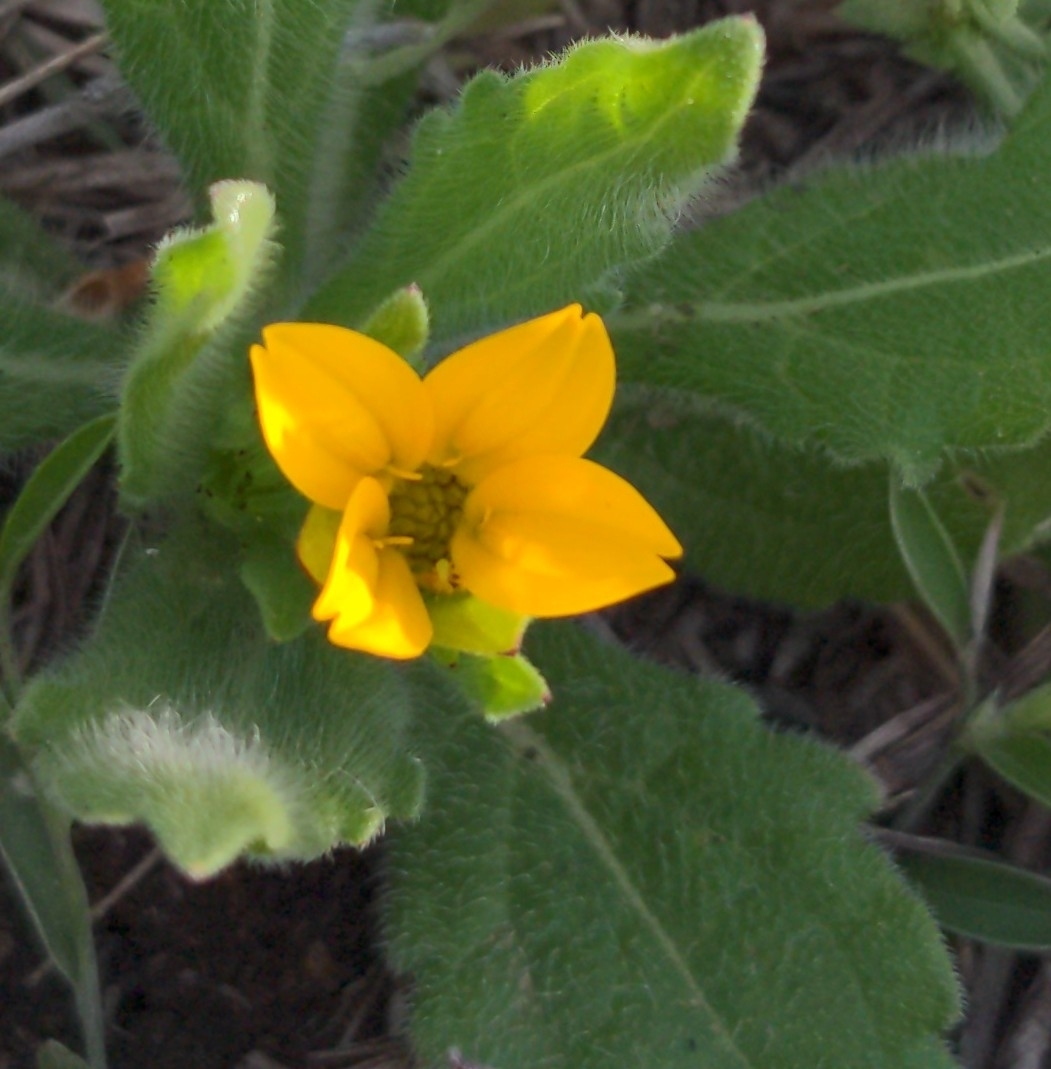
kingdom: Plantae
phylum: Tracheophyta
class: Magnoliopsida
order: Asterales
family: Asteraceae
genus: Lindheimera
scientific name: Lindheimera texana
